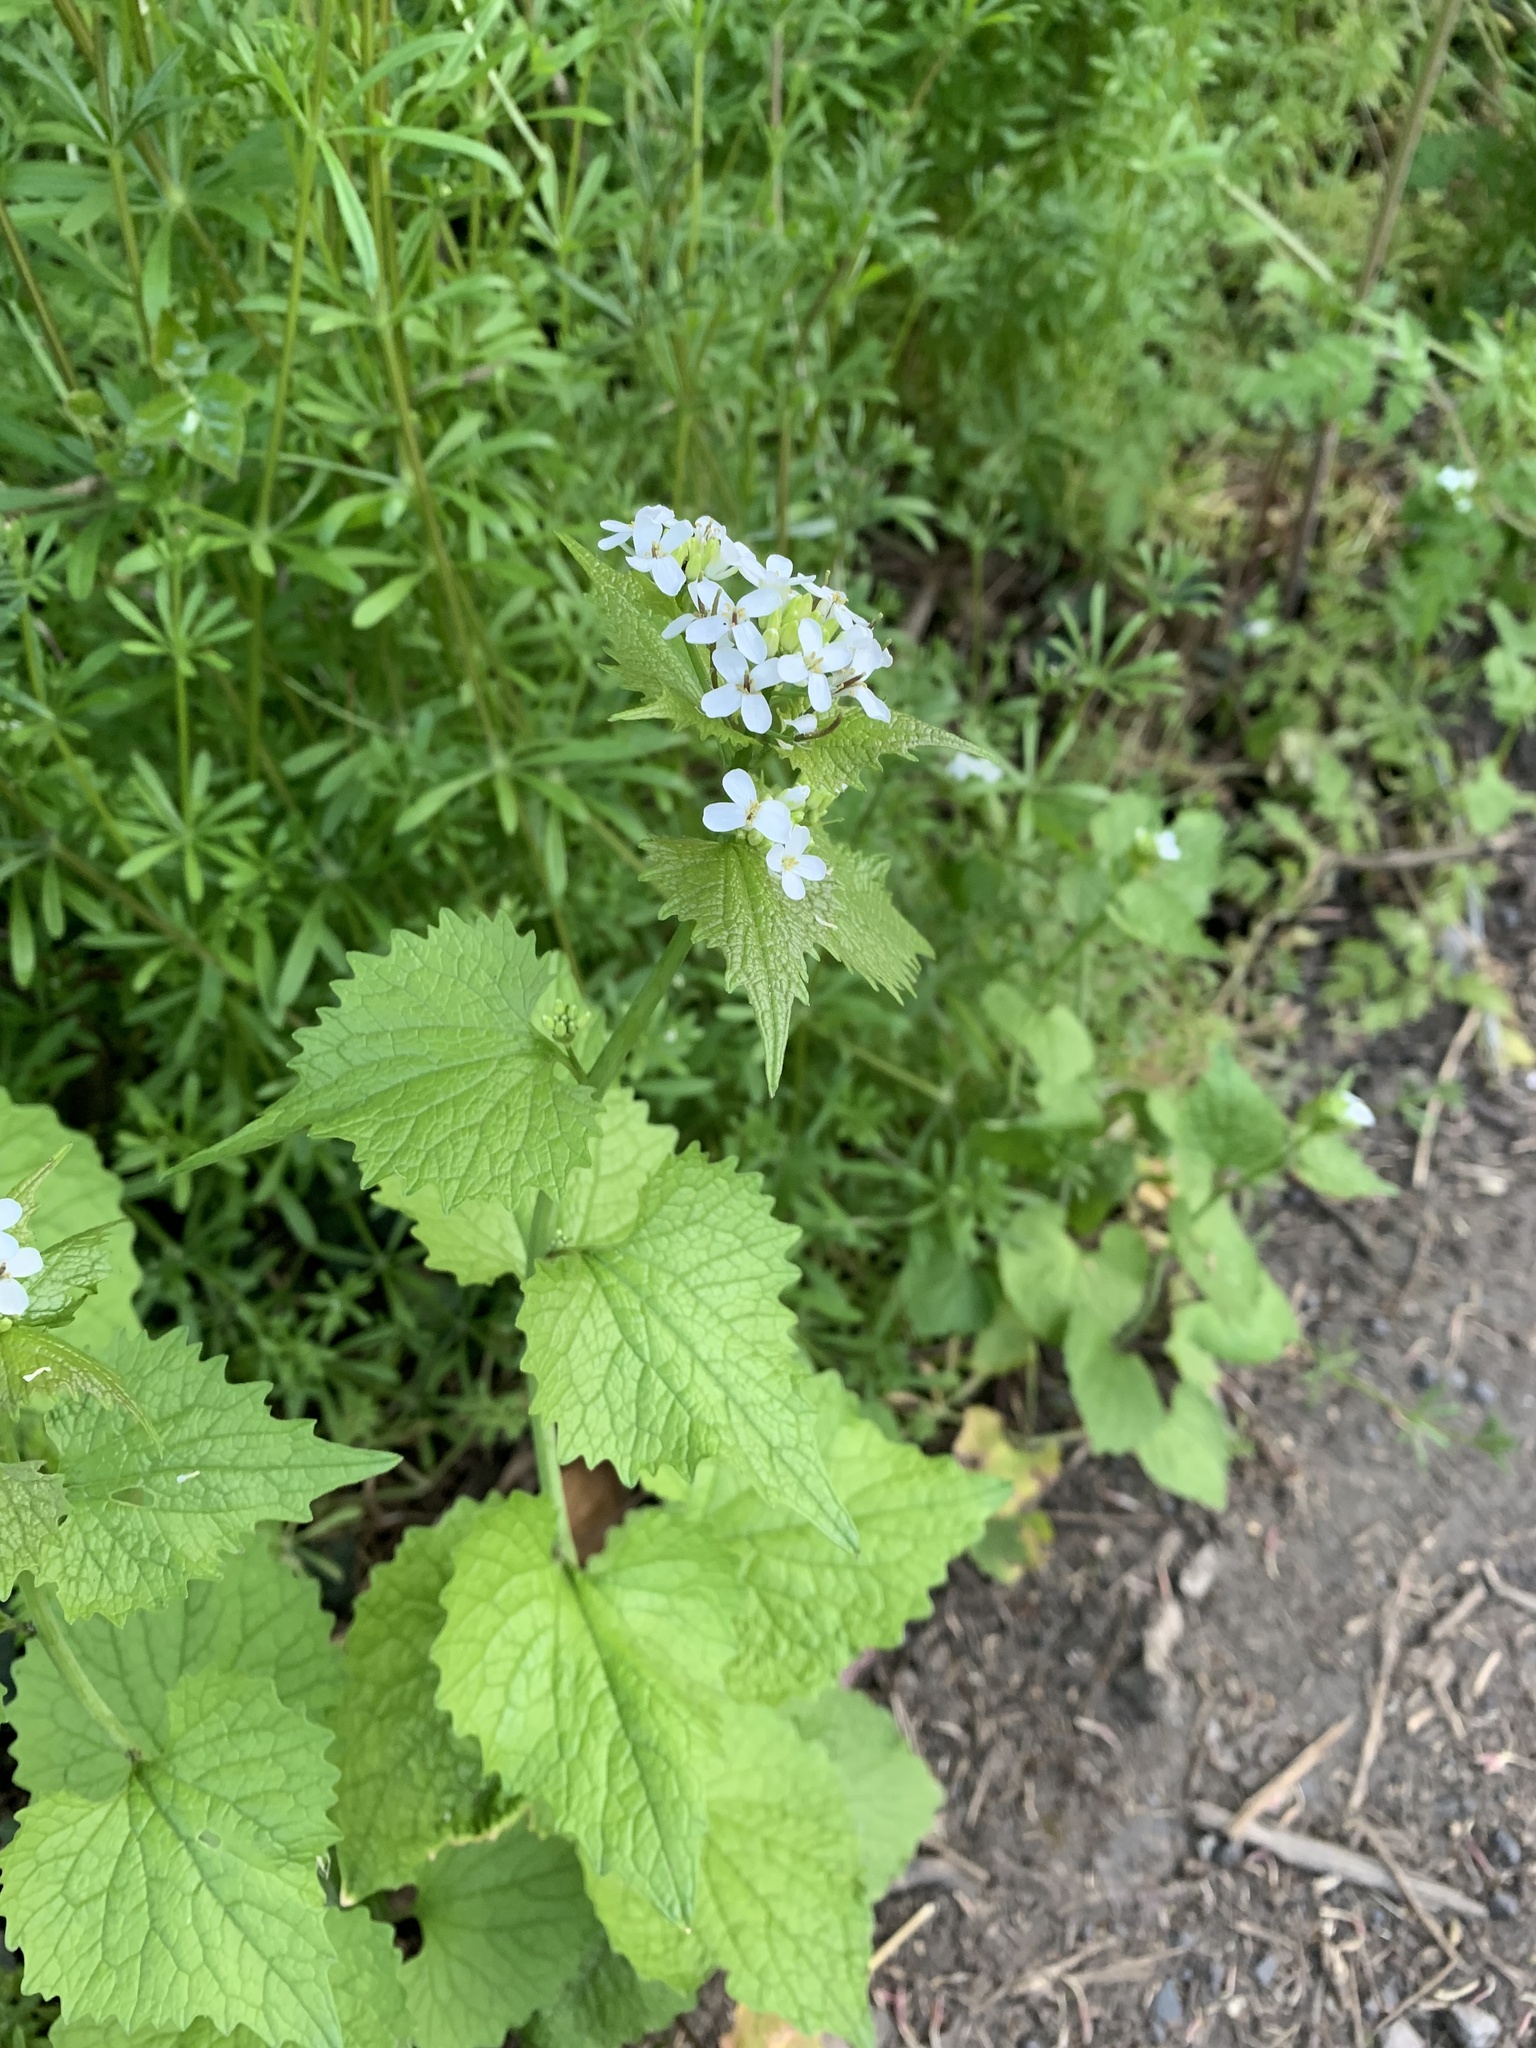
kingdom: Plantae
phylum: Tracheophyta
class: Magnoliopsida
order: Brassicales
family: Brassicaceae
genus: Alliaria
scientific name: Alliaria petiolata
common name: Garlic mustard
